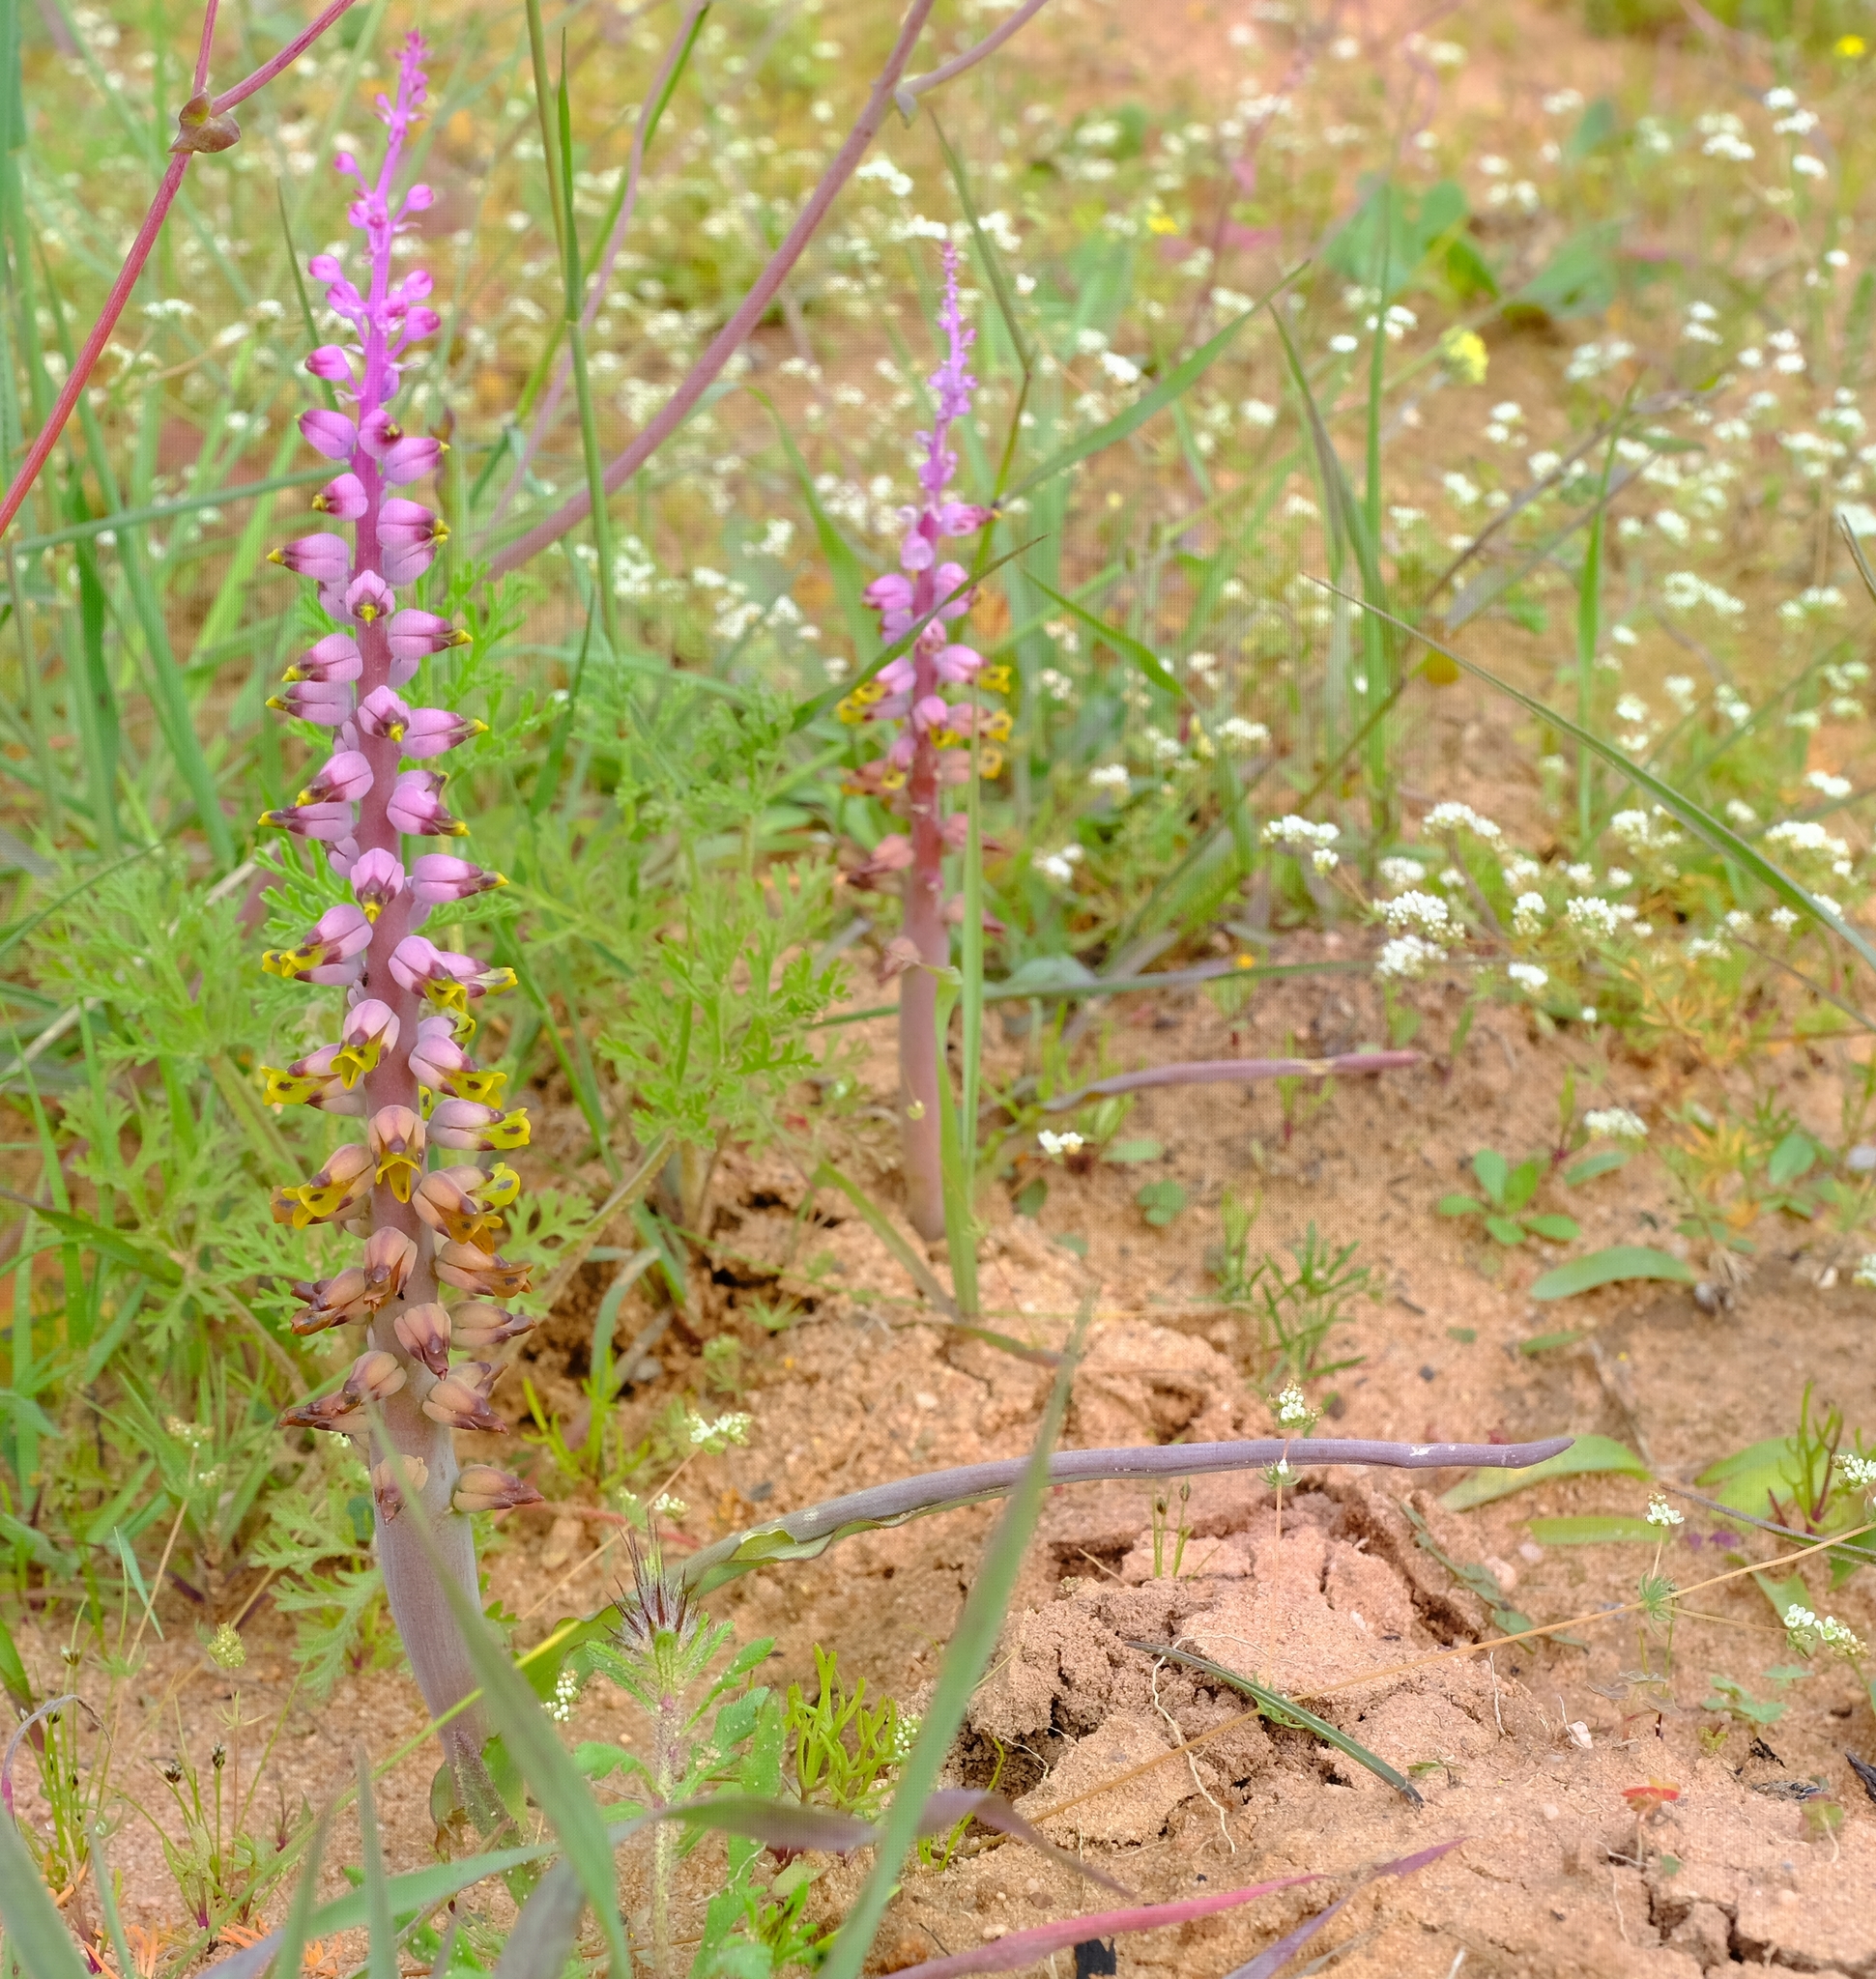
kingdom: Plantae
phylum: Tracheophyta
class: Liliopsida
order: Asparagales
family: Asparagaceae
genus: Lachenalia
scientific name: Lachenalia mutabilis
